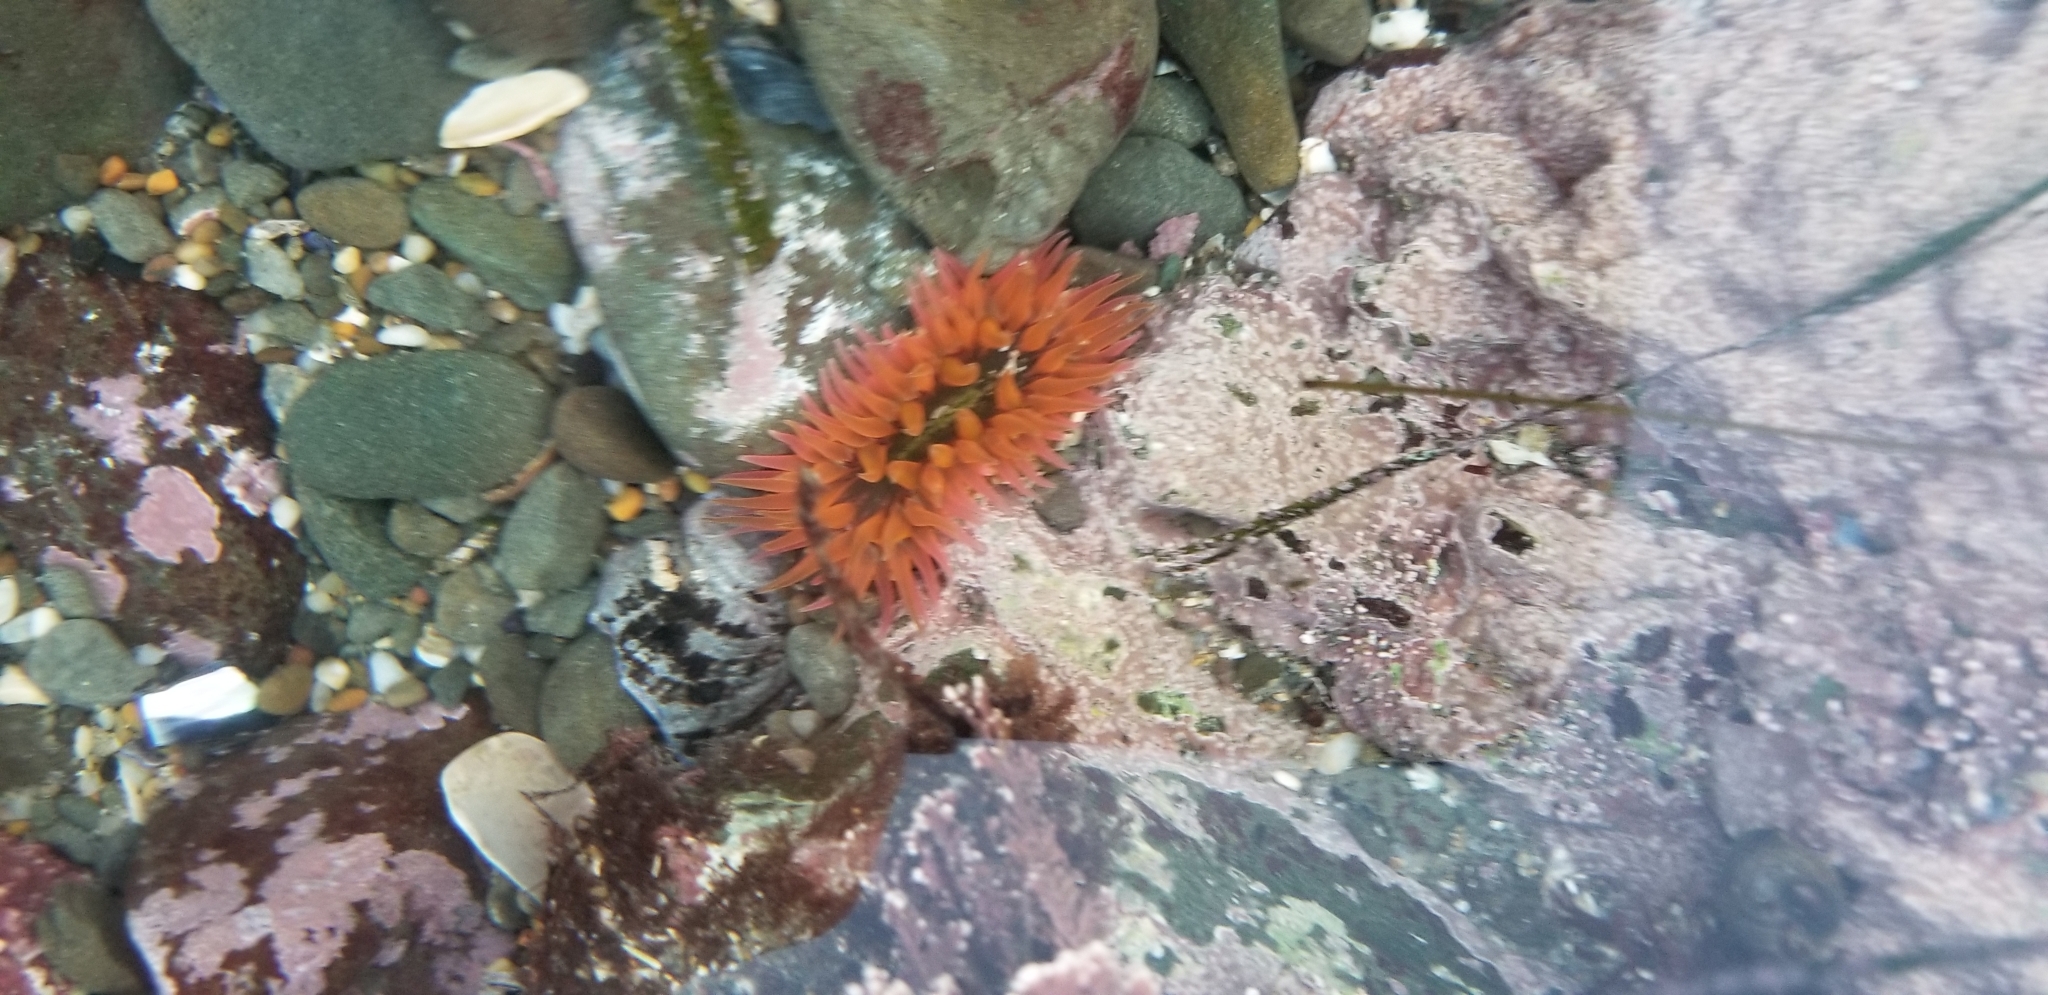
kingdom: Animalia
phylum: Cnidaria
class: Anthozoa
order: Actiniaria
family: Actiniidae
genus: Anthopleura
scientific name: Anthopleura artemisia
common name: Buried sea anemone
